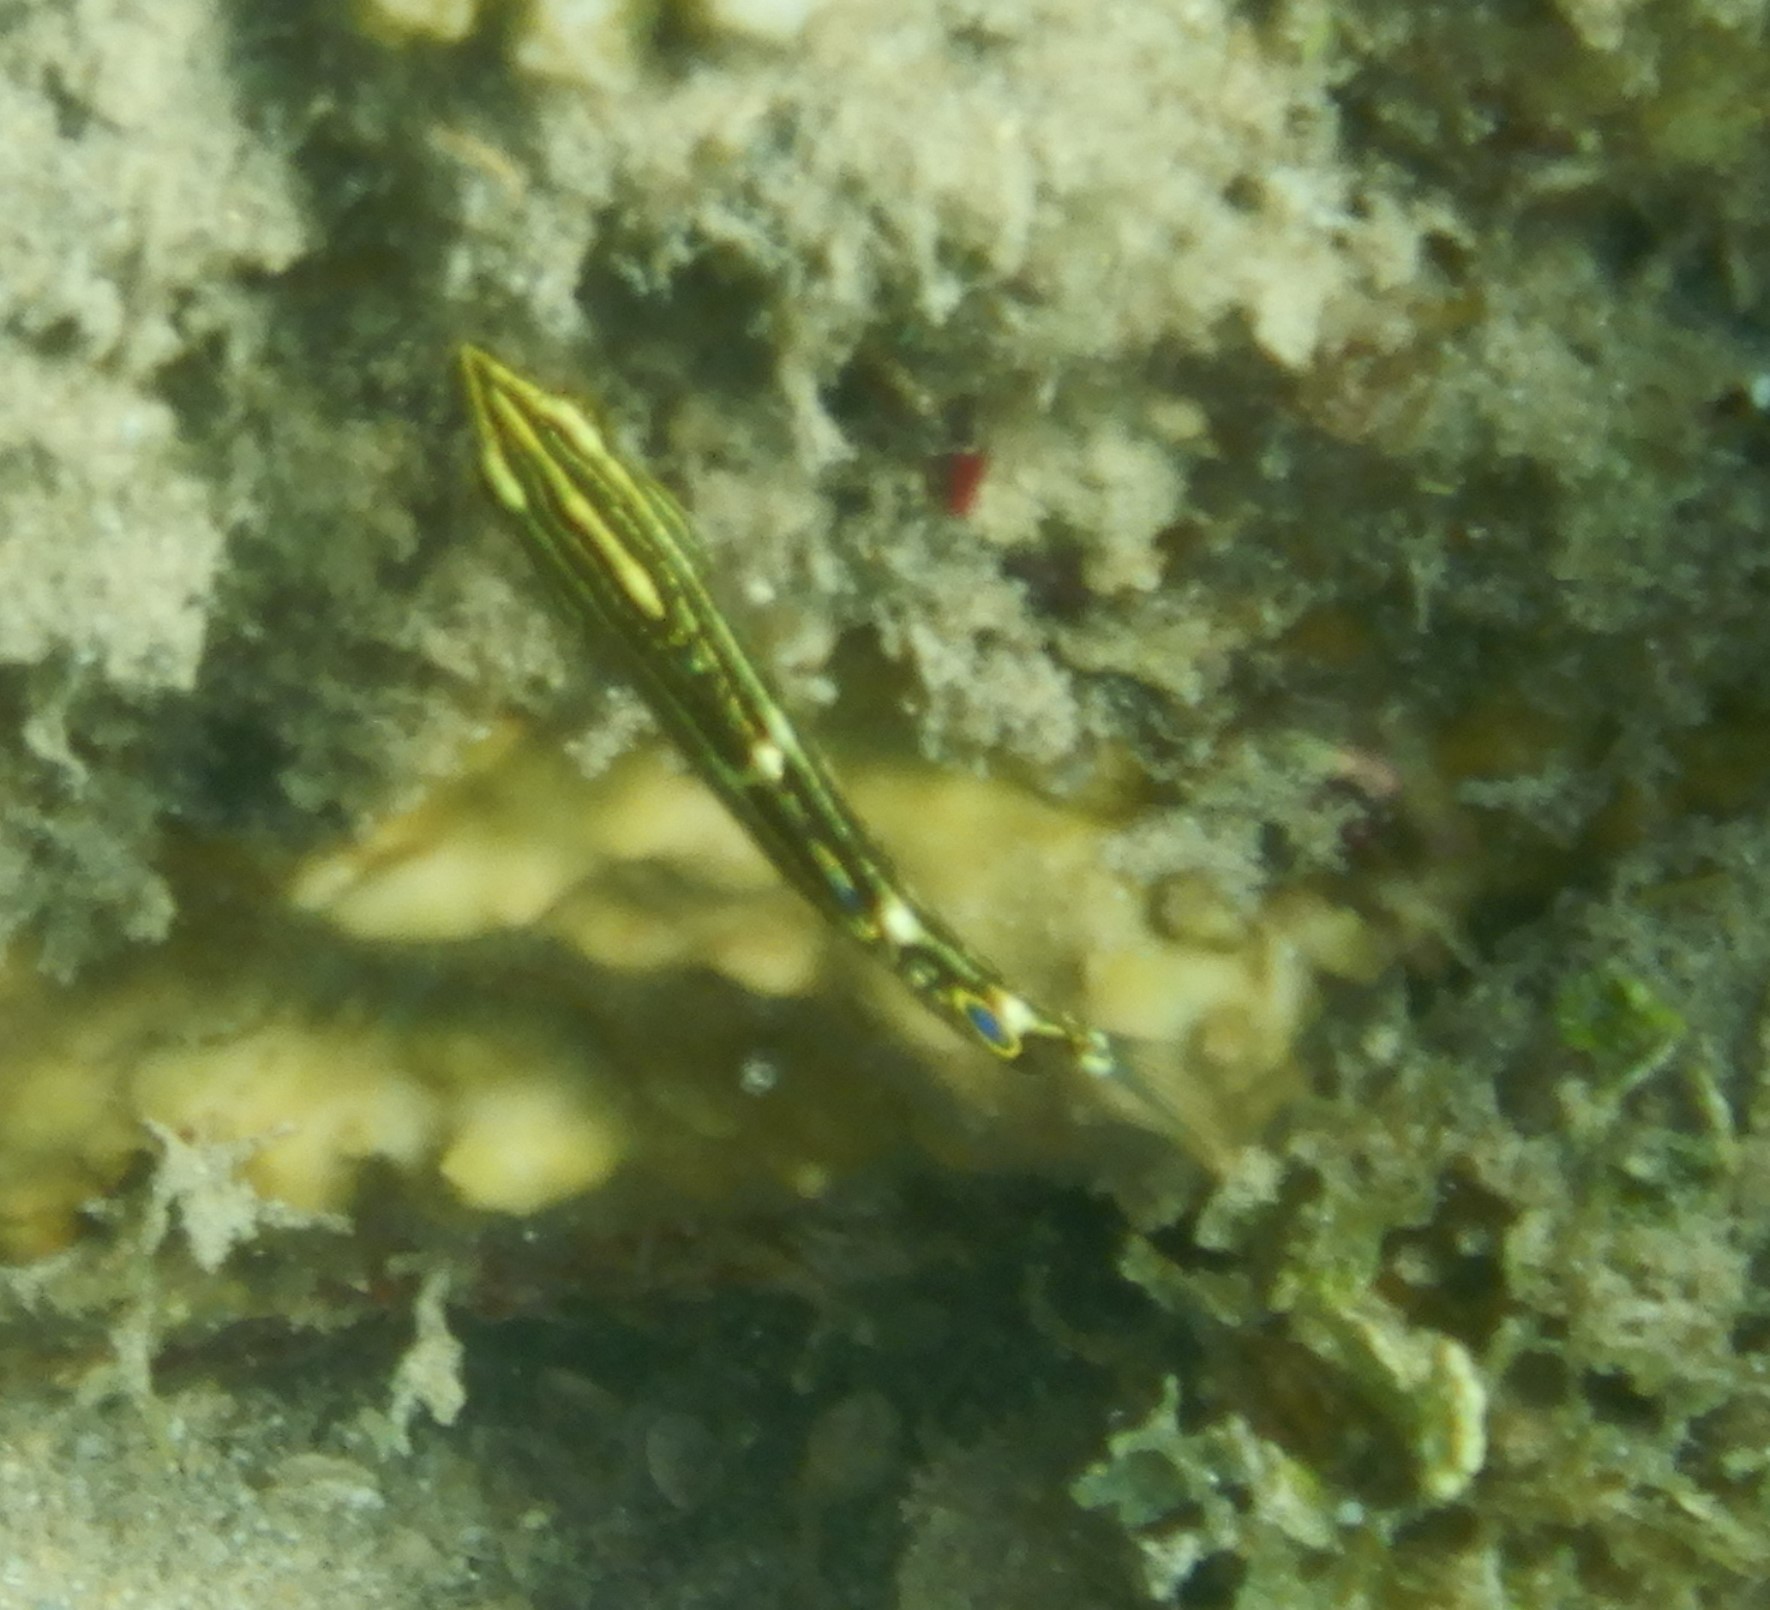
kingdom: Animalia
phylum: Chordata
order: Perciformes
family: Labridae
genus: Halichoeres
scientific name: Halichoeres marginatus
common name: Dusky wrasse
